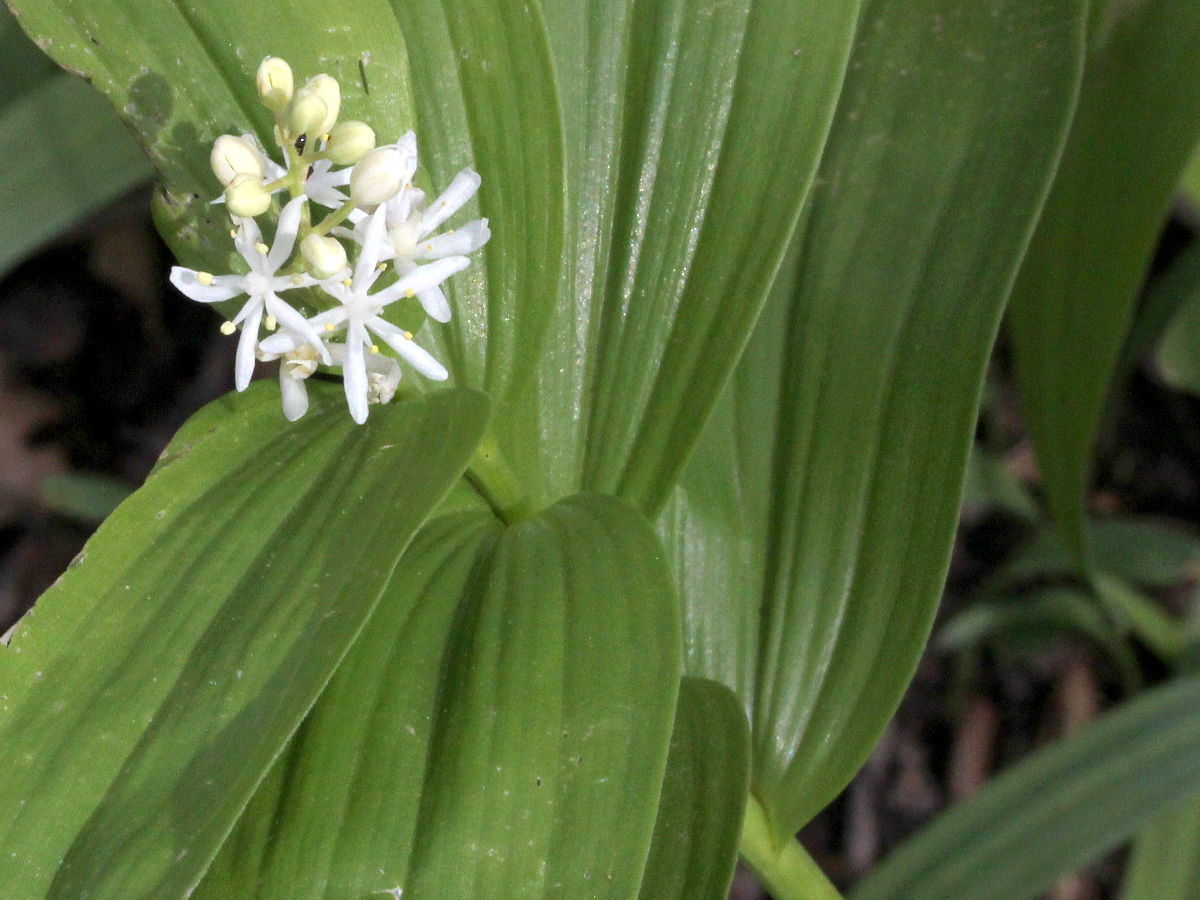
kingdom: Plantae
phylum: Tracheophyta
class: Liliopsida
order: Asparagales
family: Asparagaceae
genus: Maianthemum
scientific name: Maianthemum stellatum
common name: Little false solomon's seal
